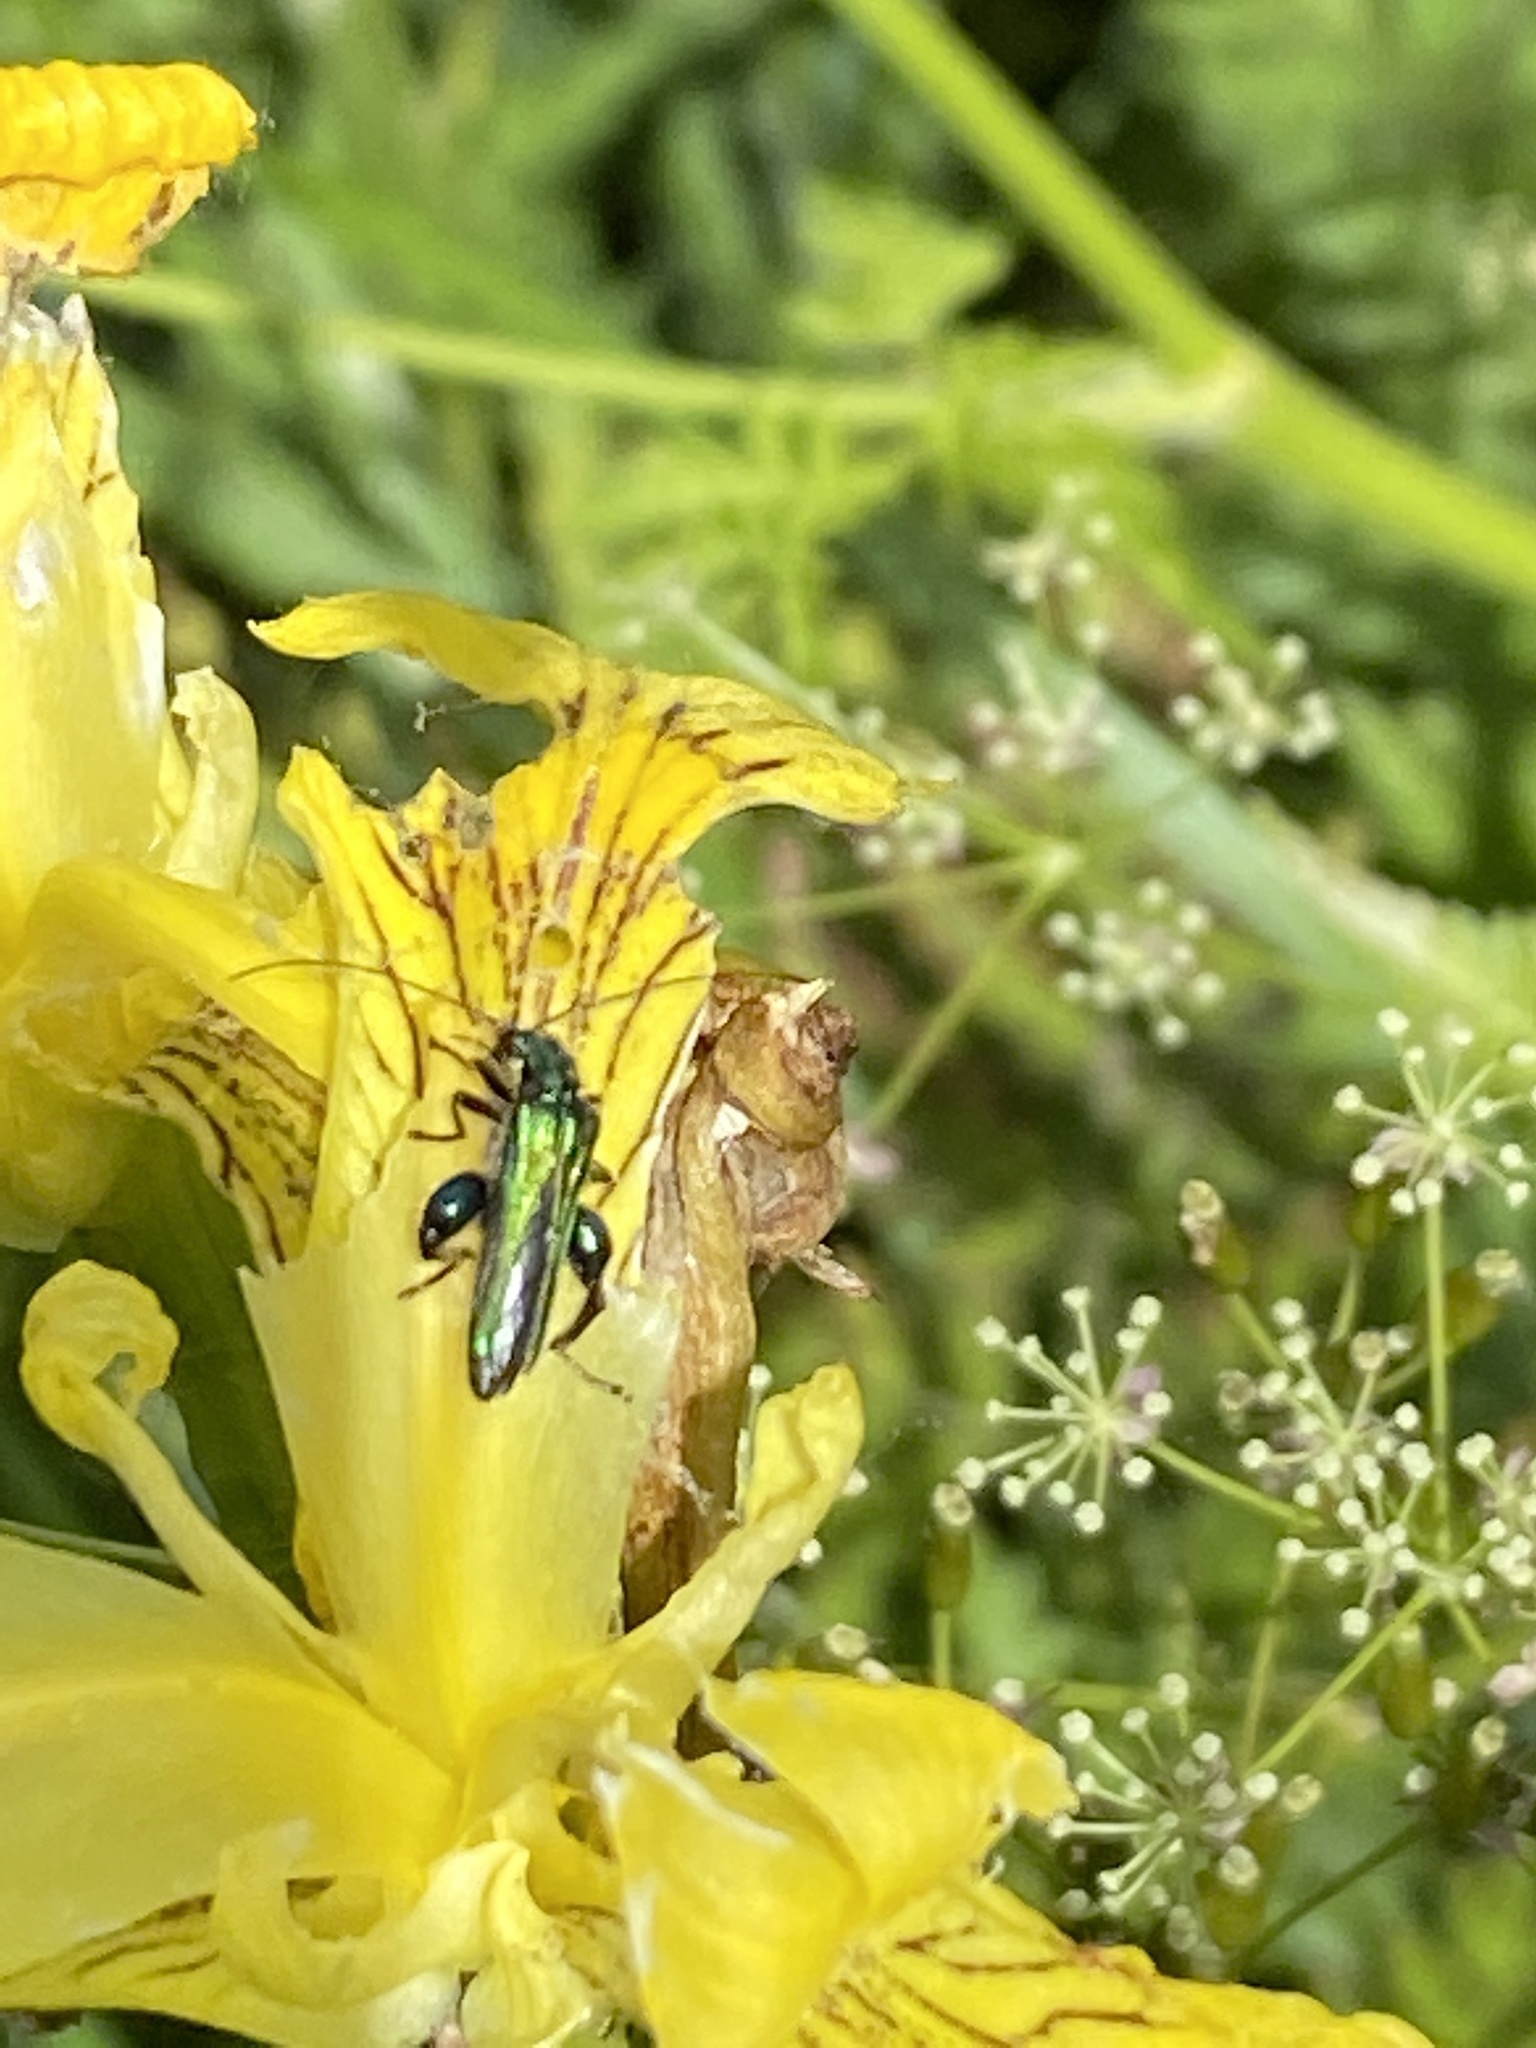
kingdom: Animalia
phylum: Arthropoda
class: Insecta
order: Coleoptera
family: Oedemeridae
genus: Oedemera
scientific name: Oedemera nobilis
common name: Swollen-thighed beetle
